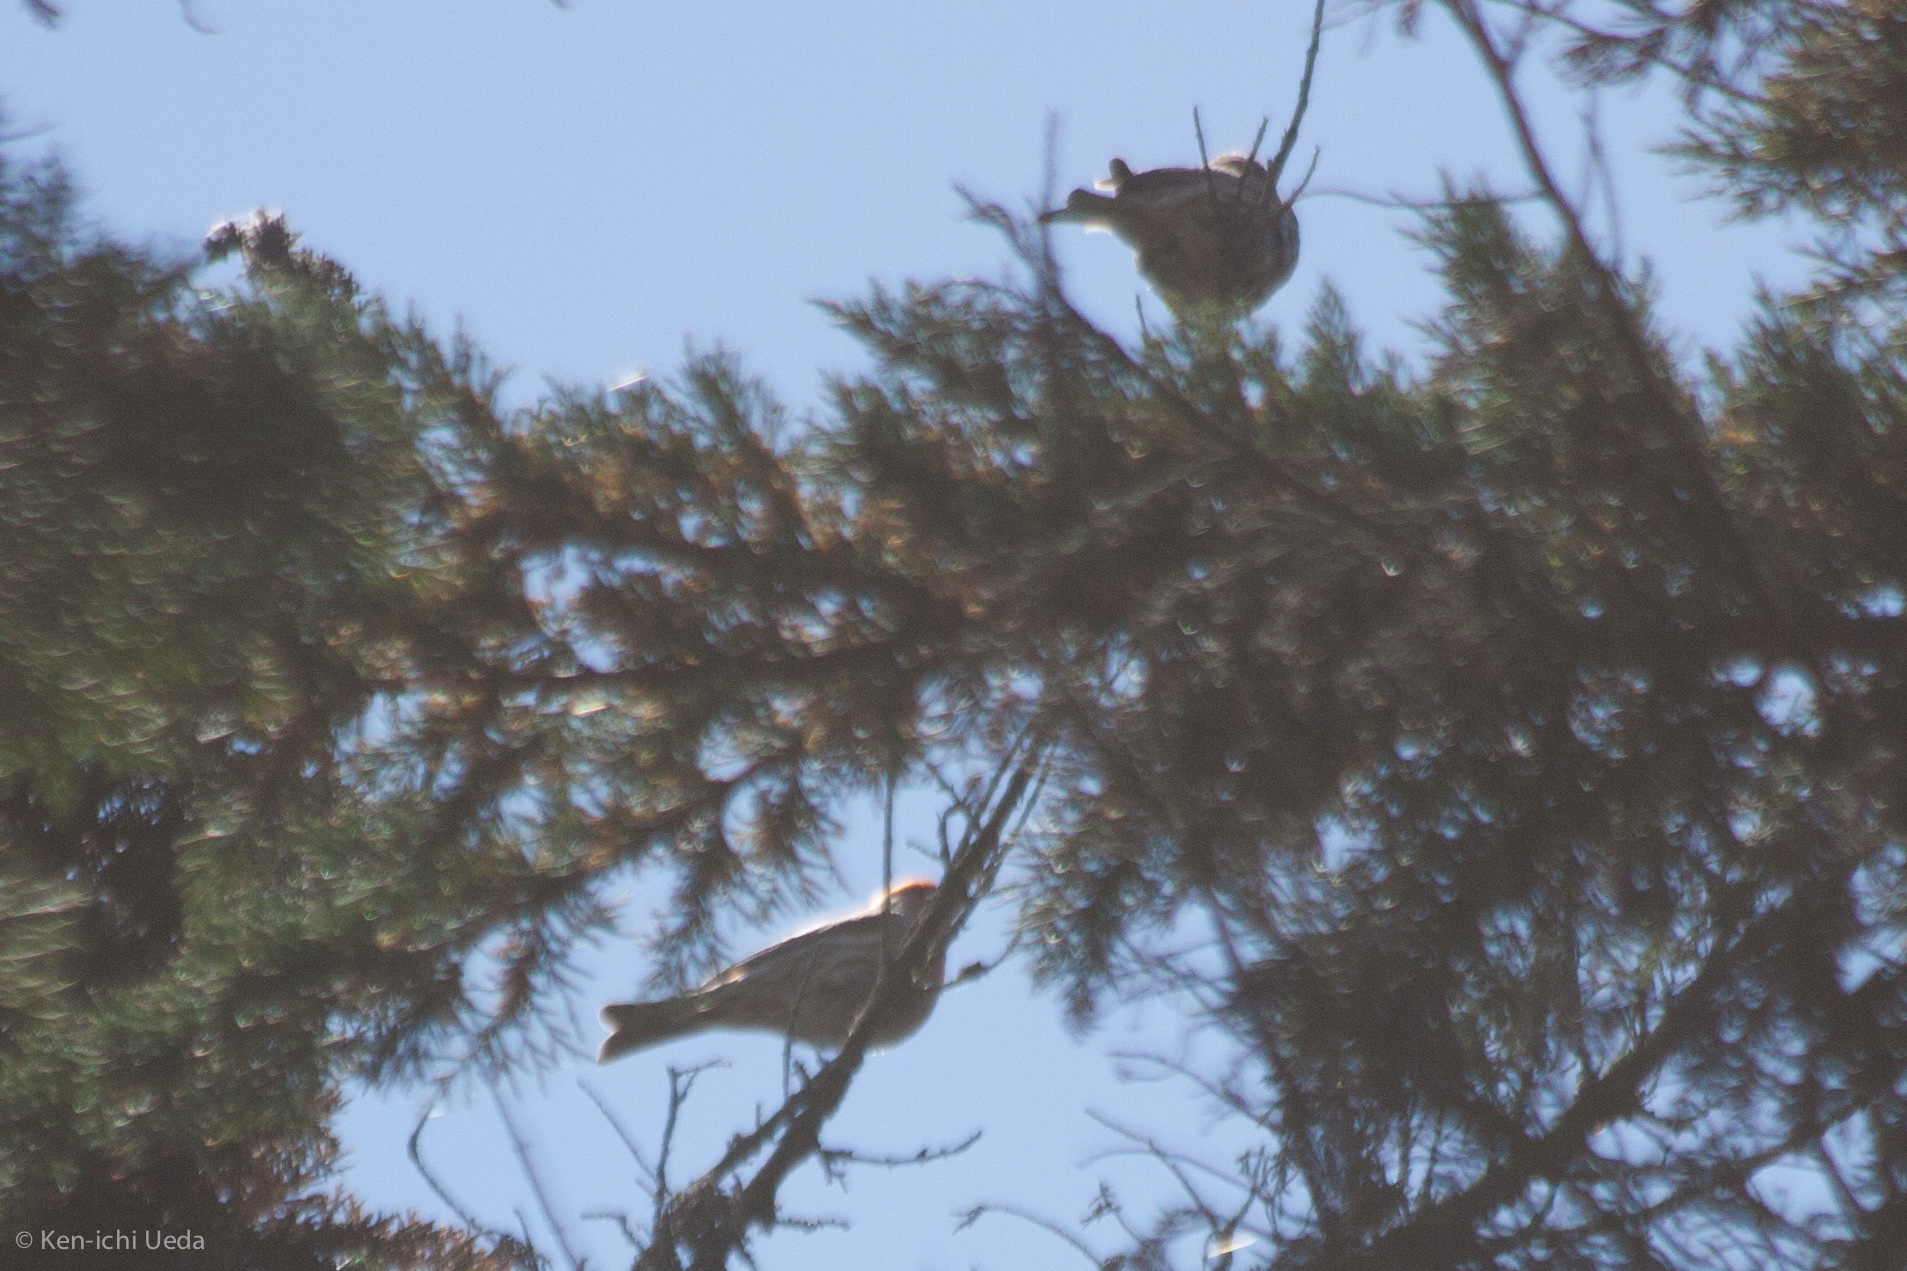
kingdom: Animalia
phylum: Chordata
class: Aves
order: Passeriformes
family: Fringillidae
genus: Haemorhous
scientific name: Haemorhous mexicanus
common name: House finch
